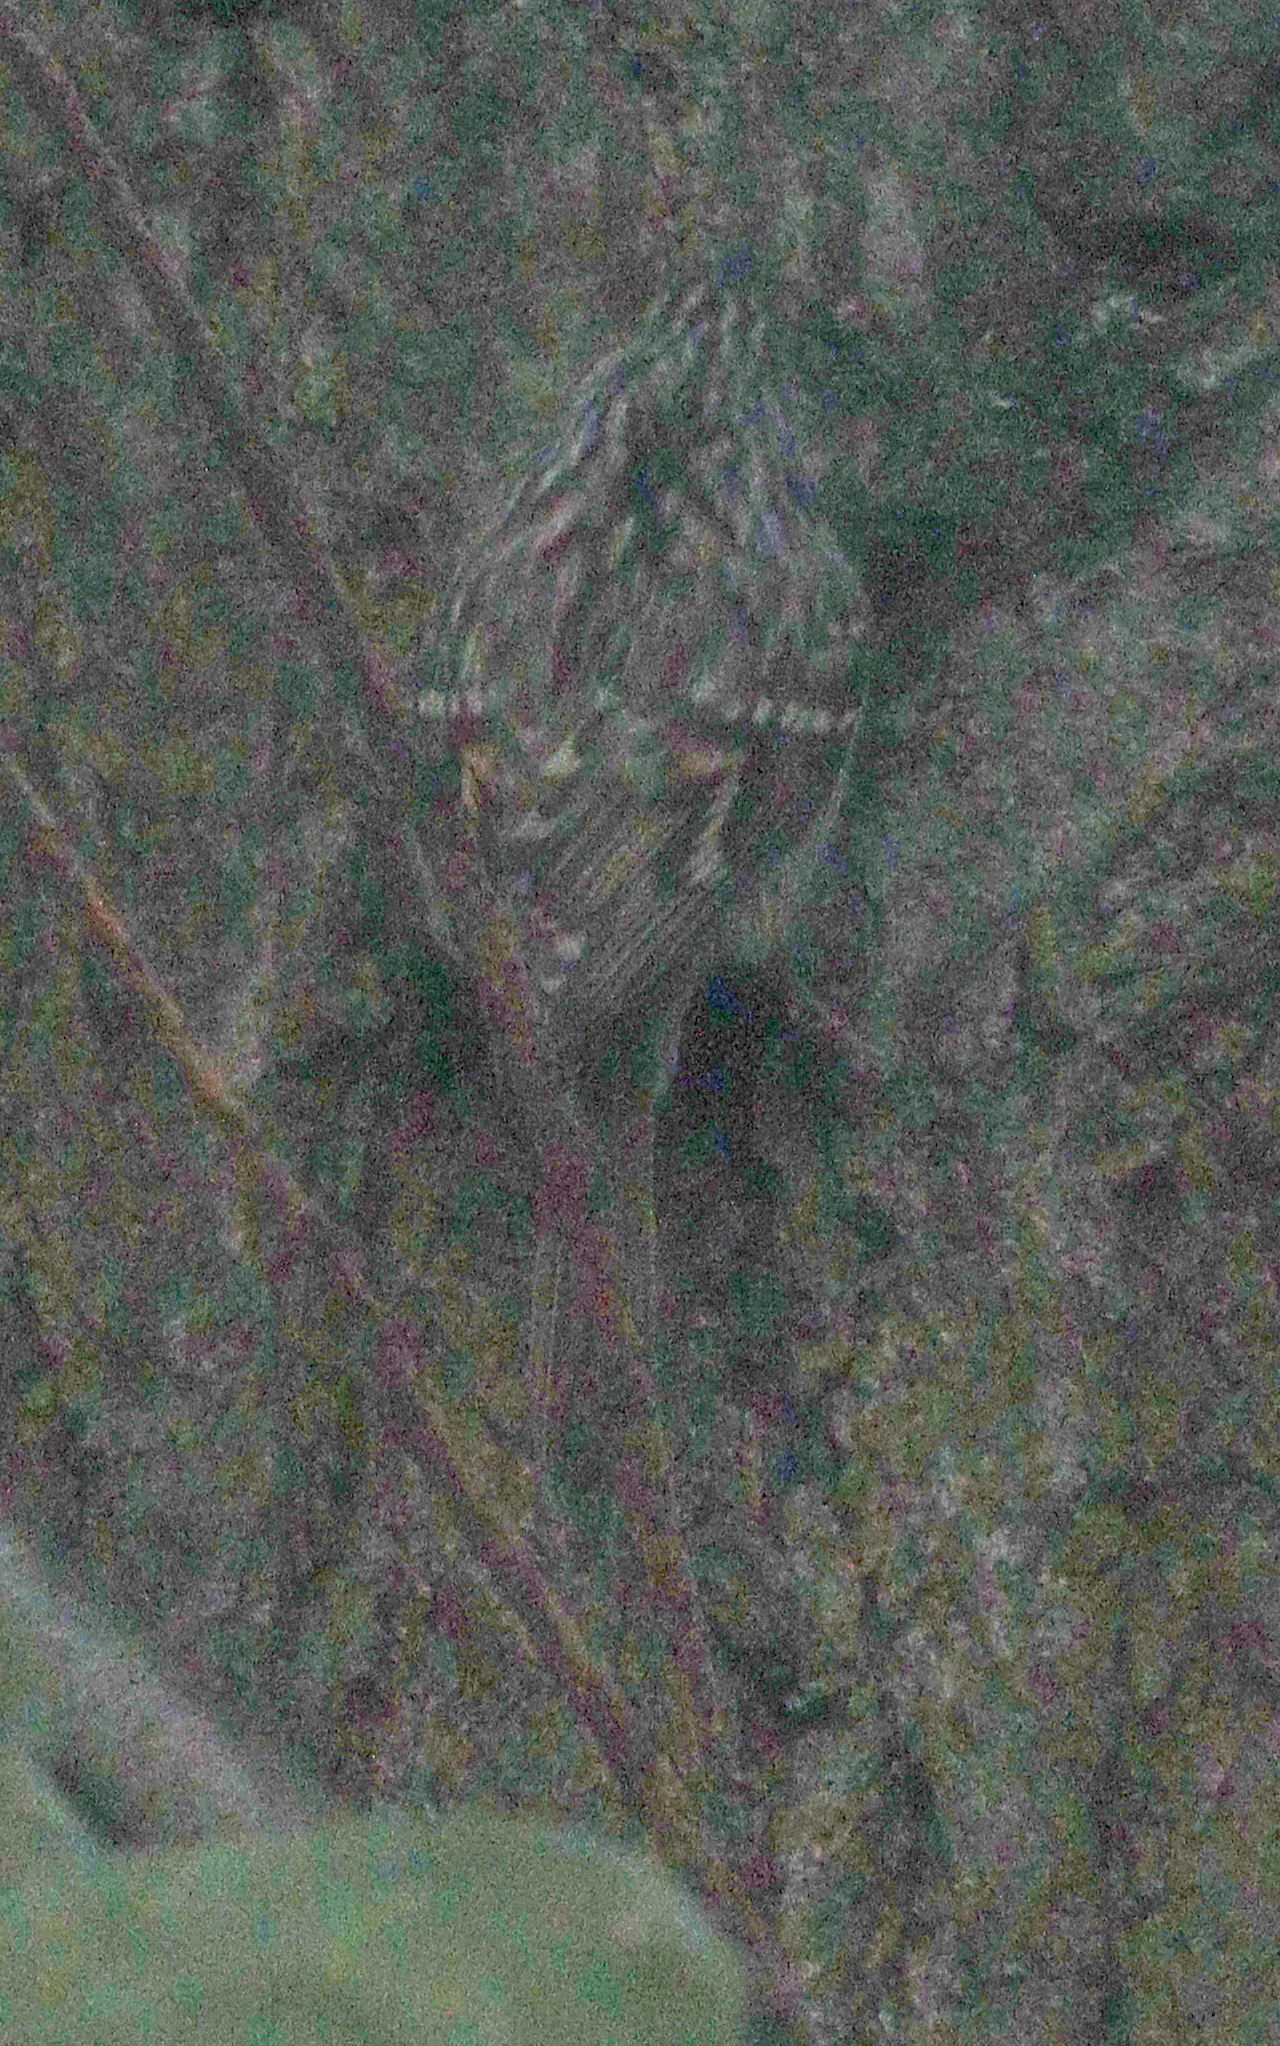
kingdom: Animalia
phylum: Chordata
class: Aves
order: Passeriformes
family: Certhiidae
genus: Certhia
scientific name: Certhia brachydactyla
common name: Short-toed treecreeper
